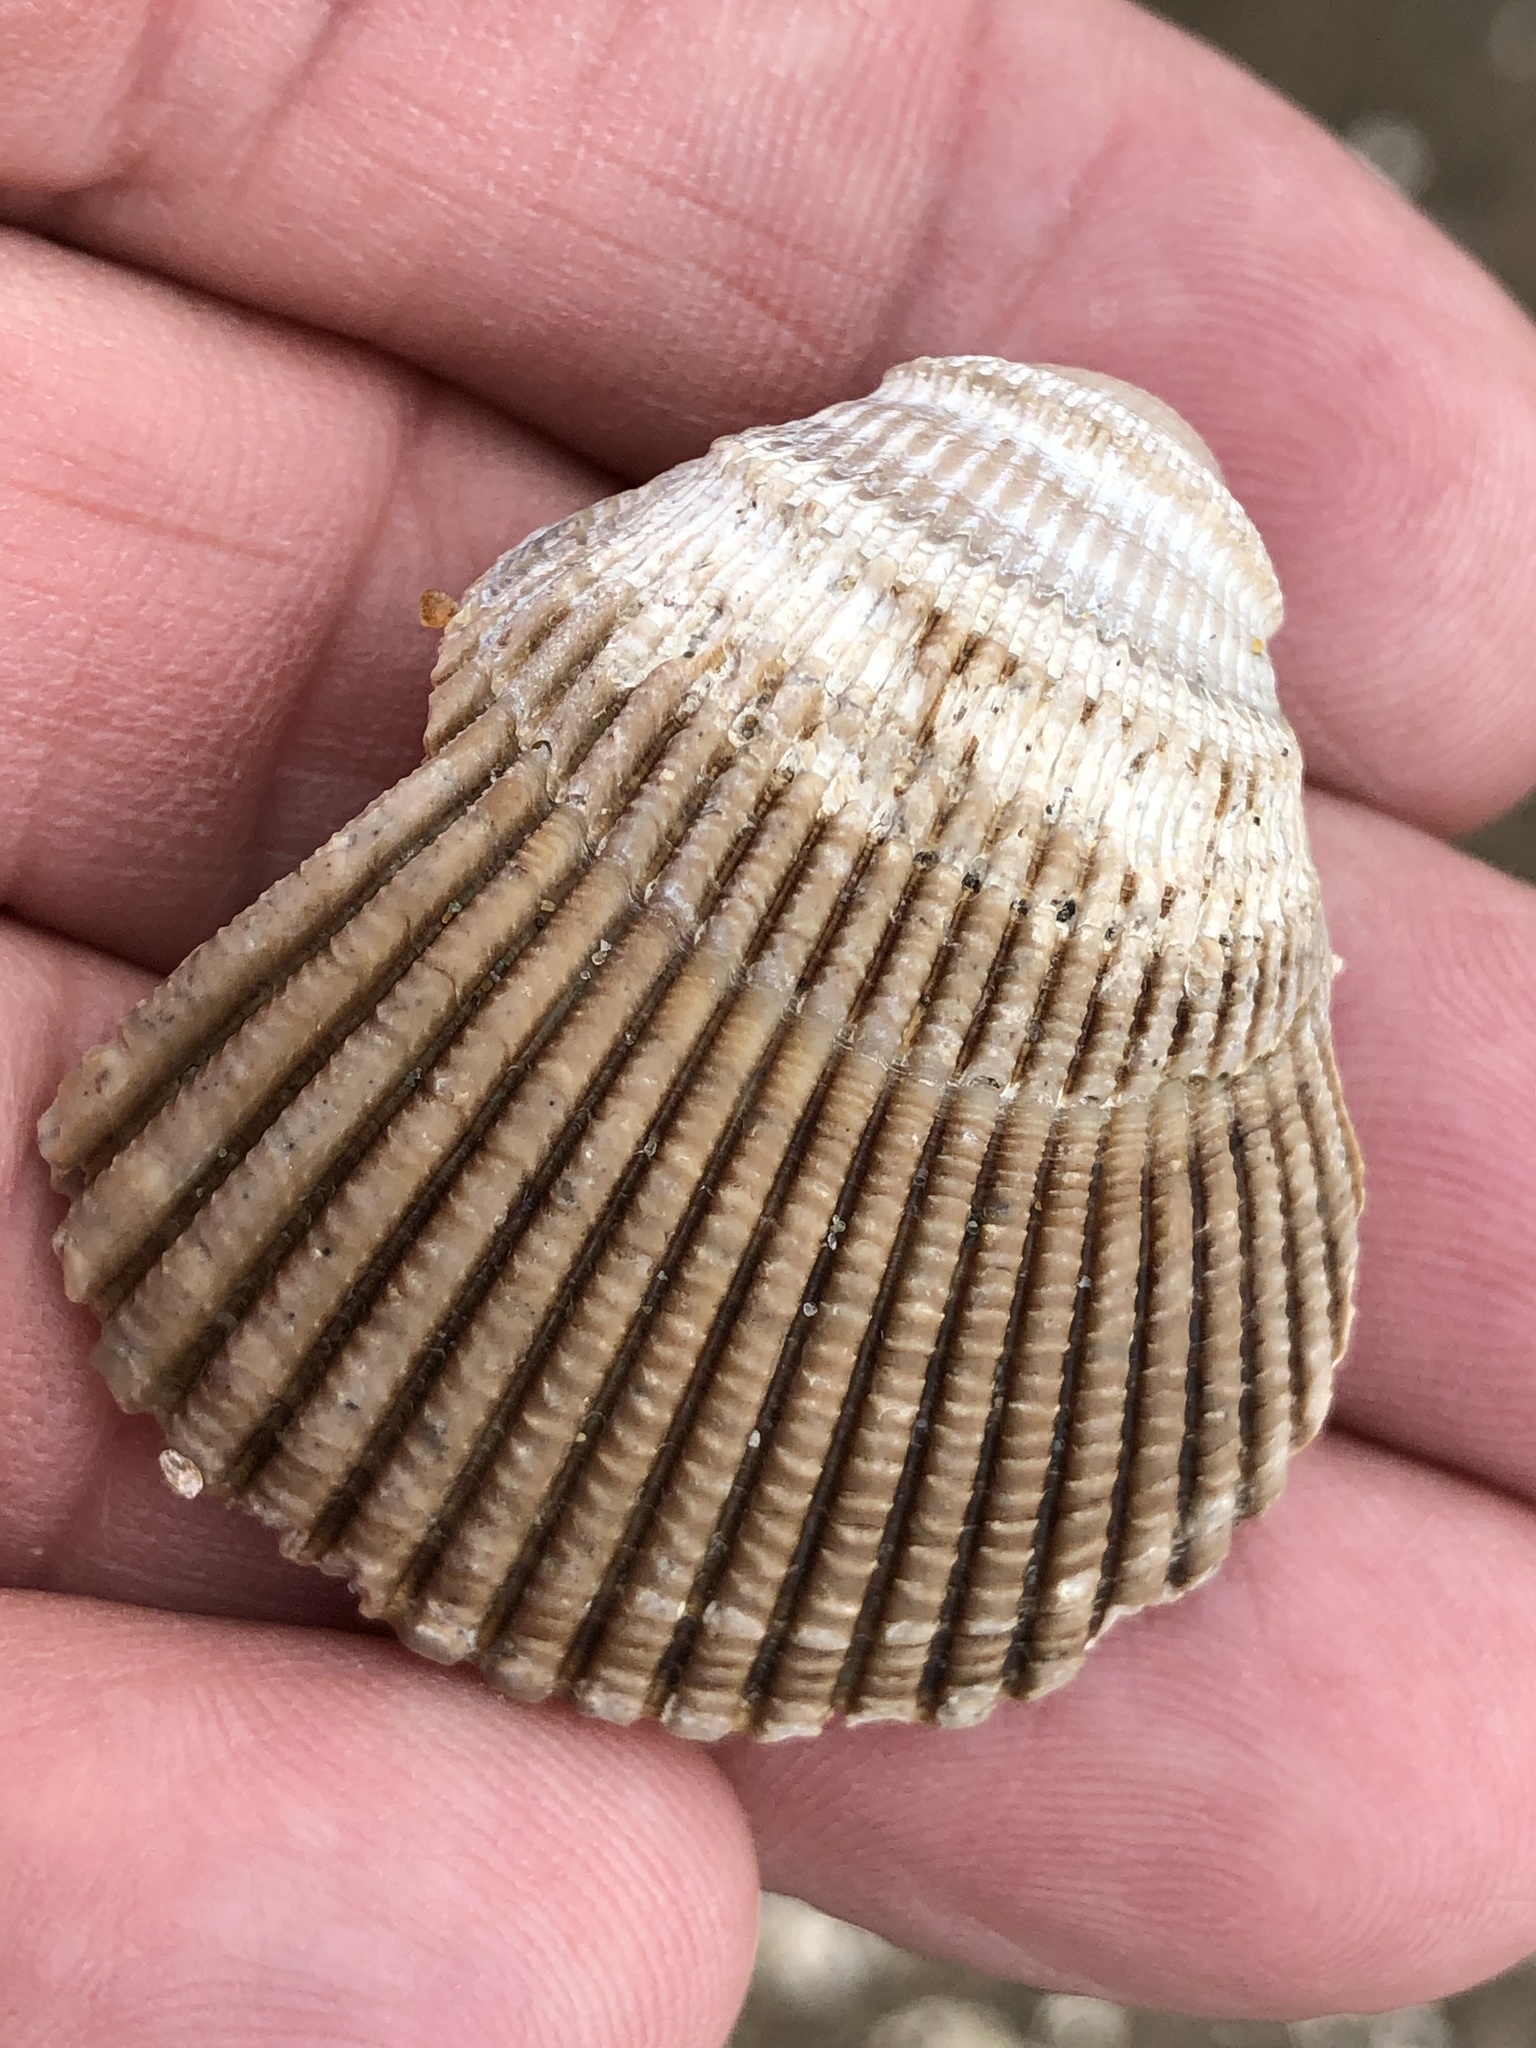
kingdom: Animalia
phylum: Mollusca
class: Bivalvia
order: Cardiida
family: Cardiidae
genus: Clinocardium
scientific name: Clinocardium nuttallii
